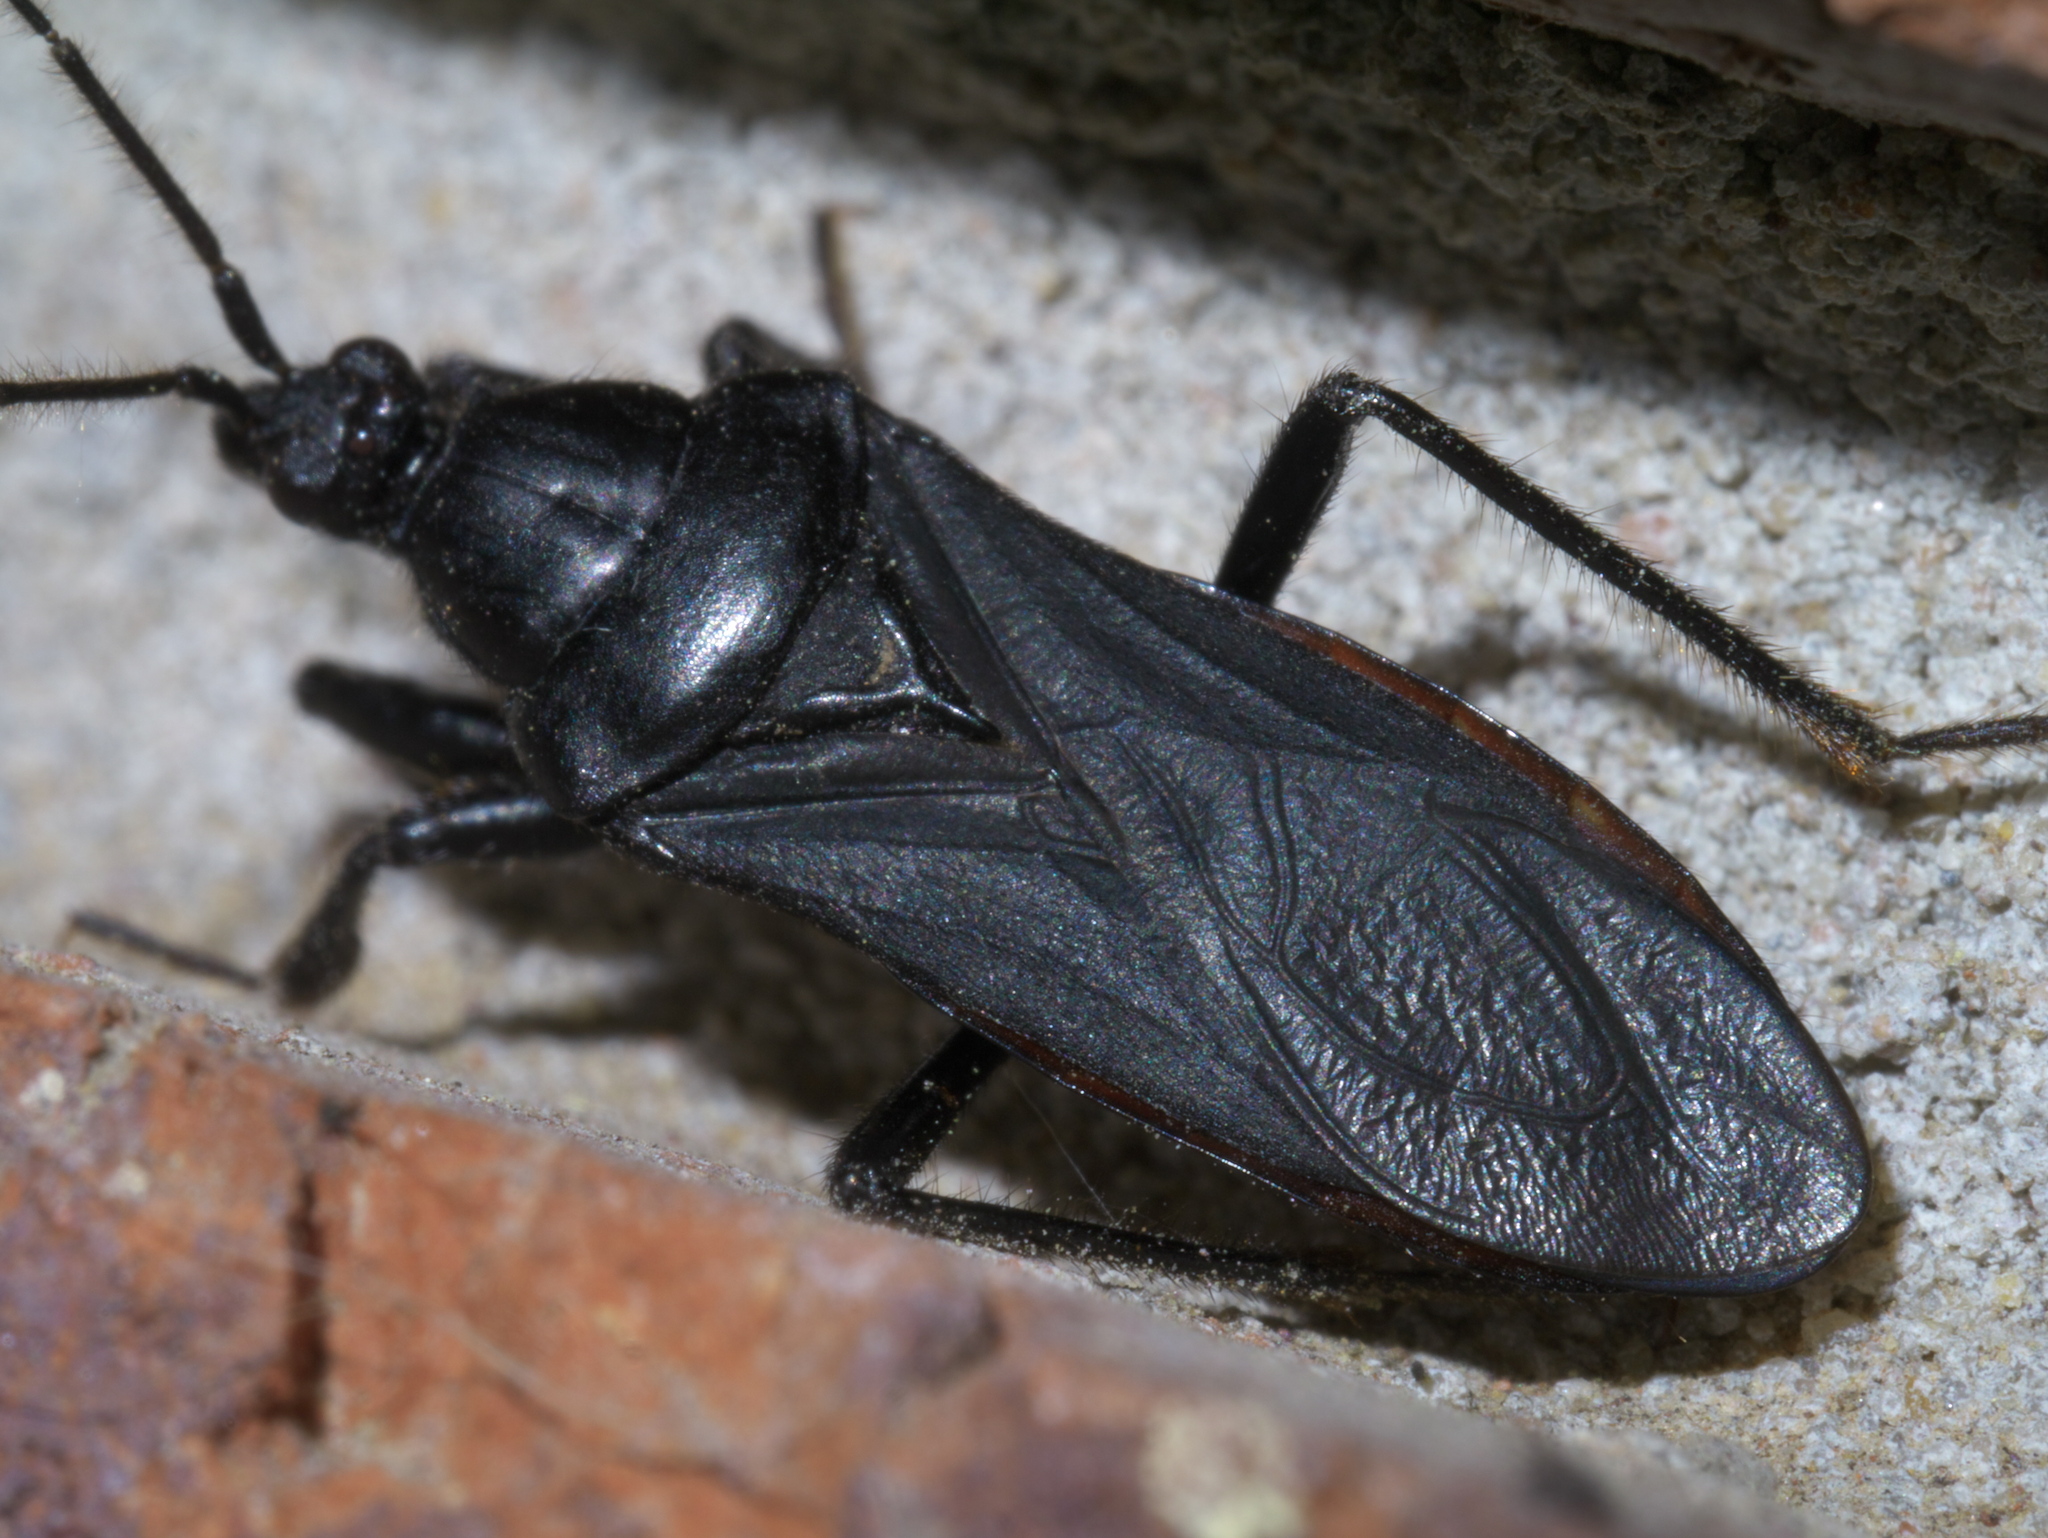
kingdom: Animalia
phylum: Arthropoda
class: Insecta
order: Hemiptera
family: Reduviidae
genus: Melanolestes
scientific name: Melanolestes picipes
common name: Assassin bug
